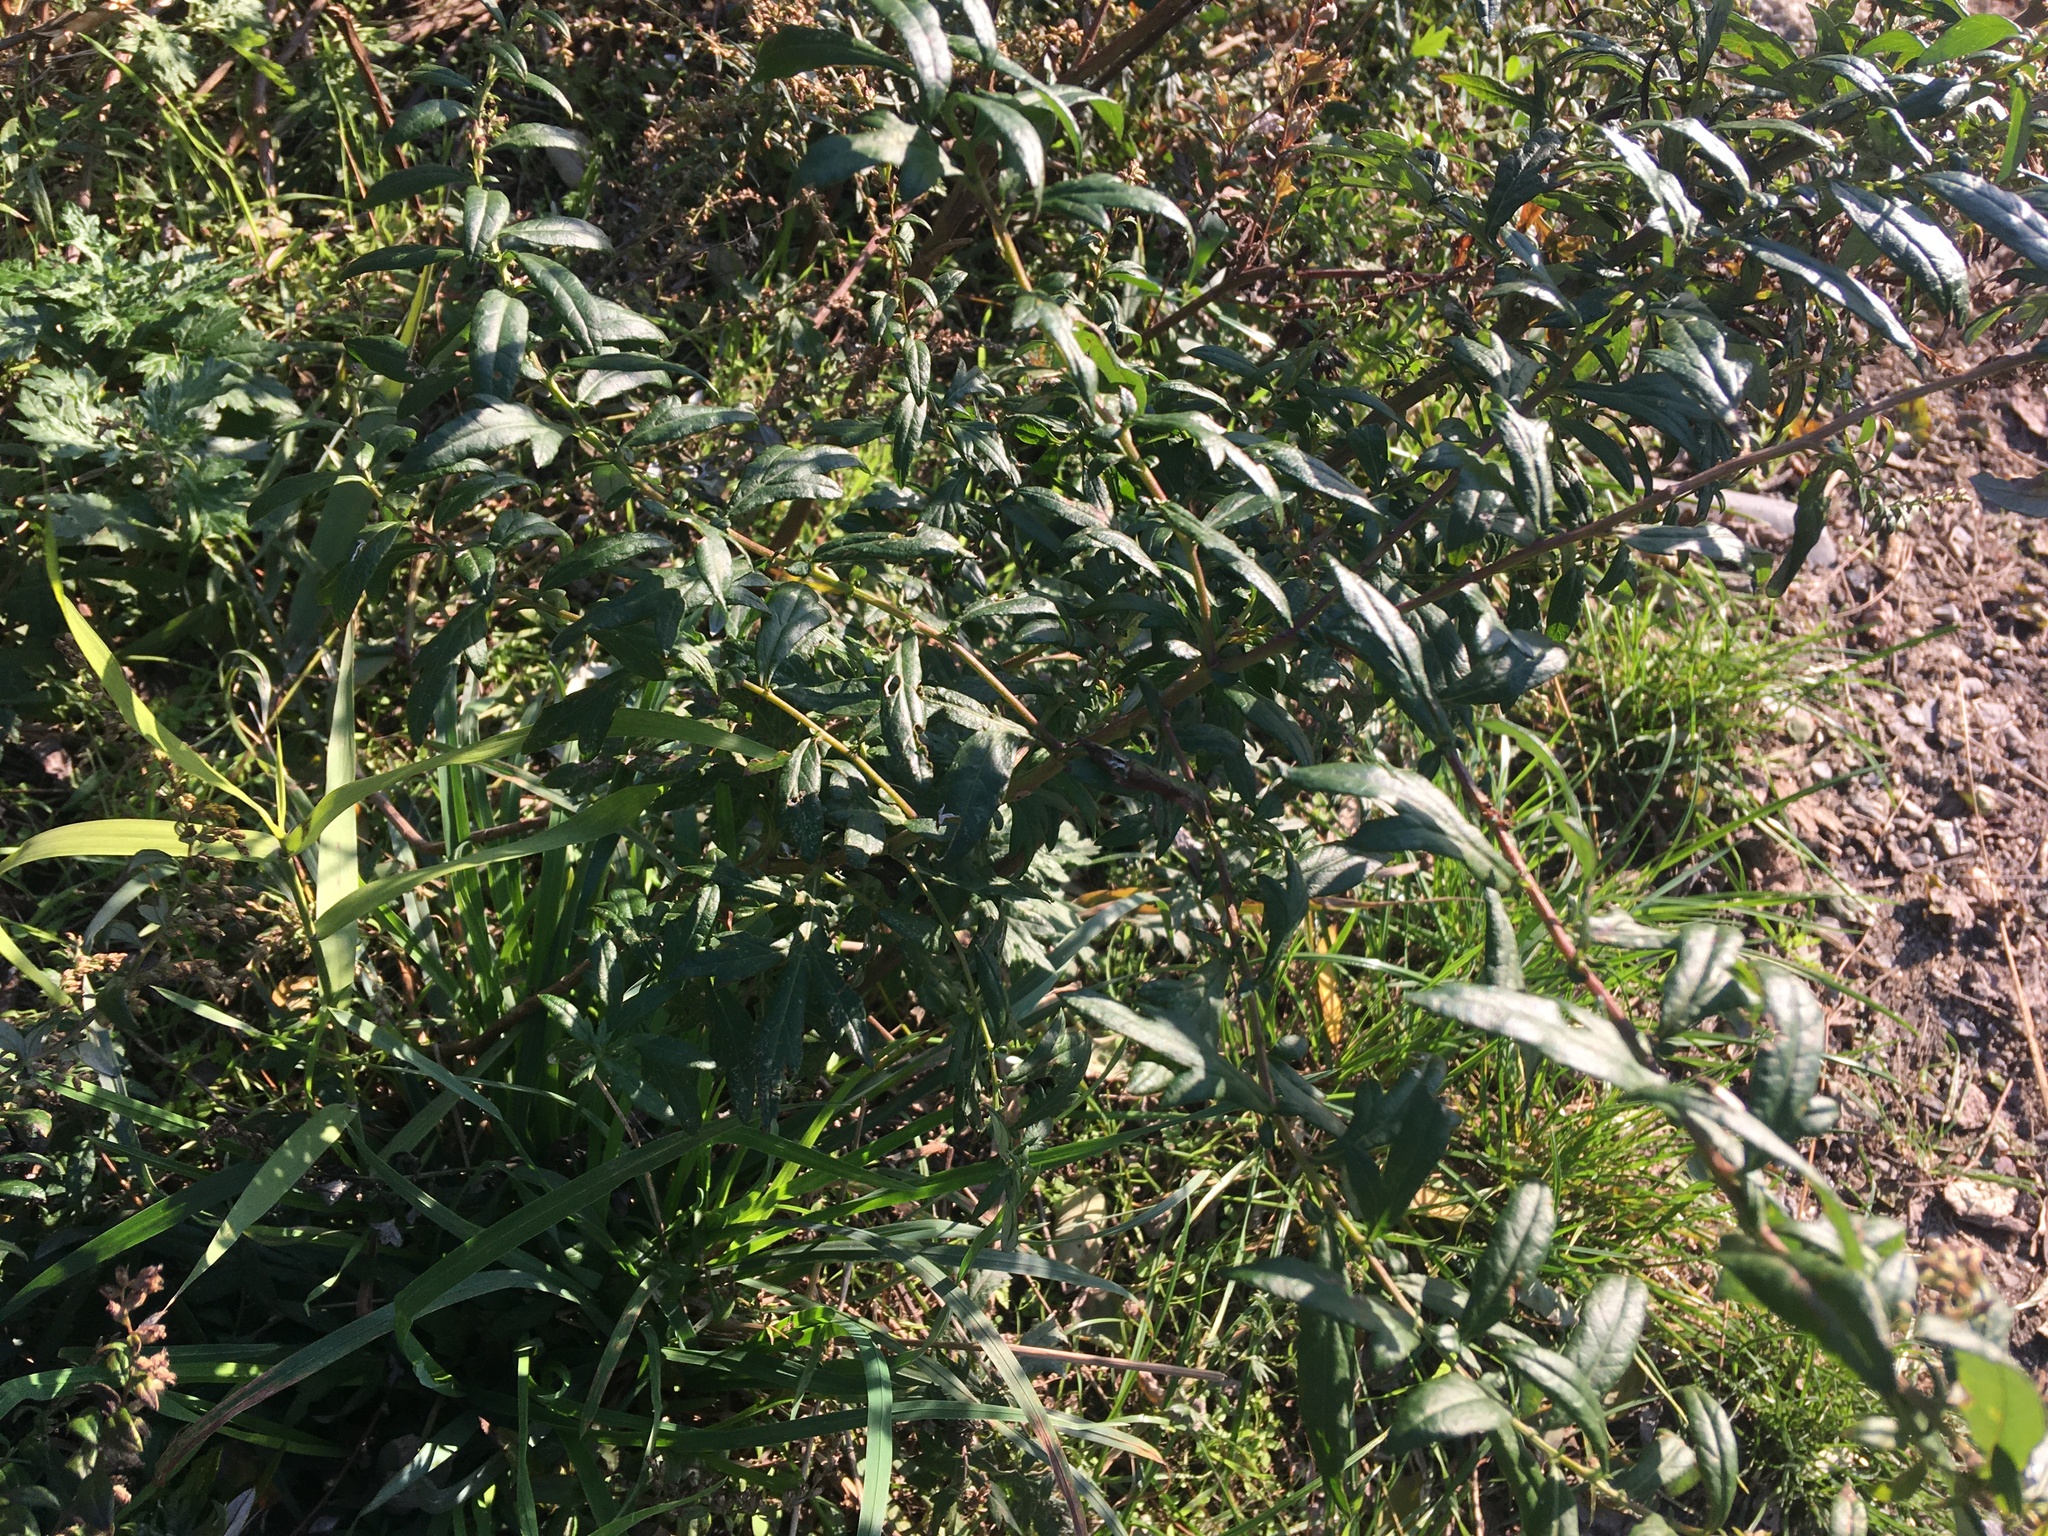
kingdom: Plantae
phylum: Tracheophyta
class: Magnoliopsida
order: Asterales
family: Asteraceae
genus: Artemisia
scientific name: Artemisia vulgaris
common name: Mugwort
